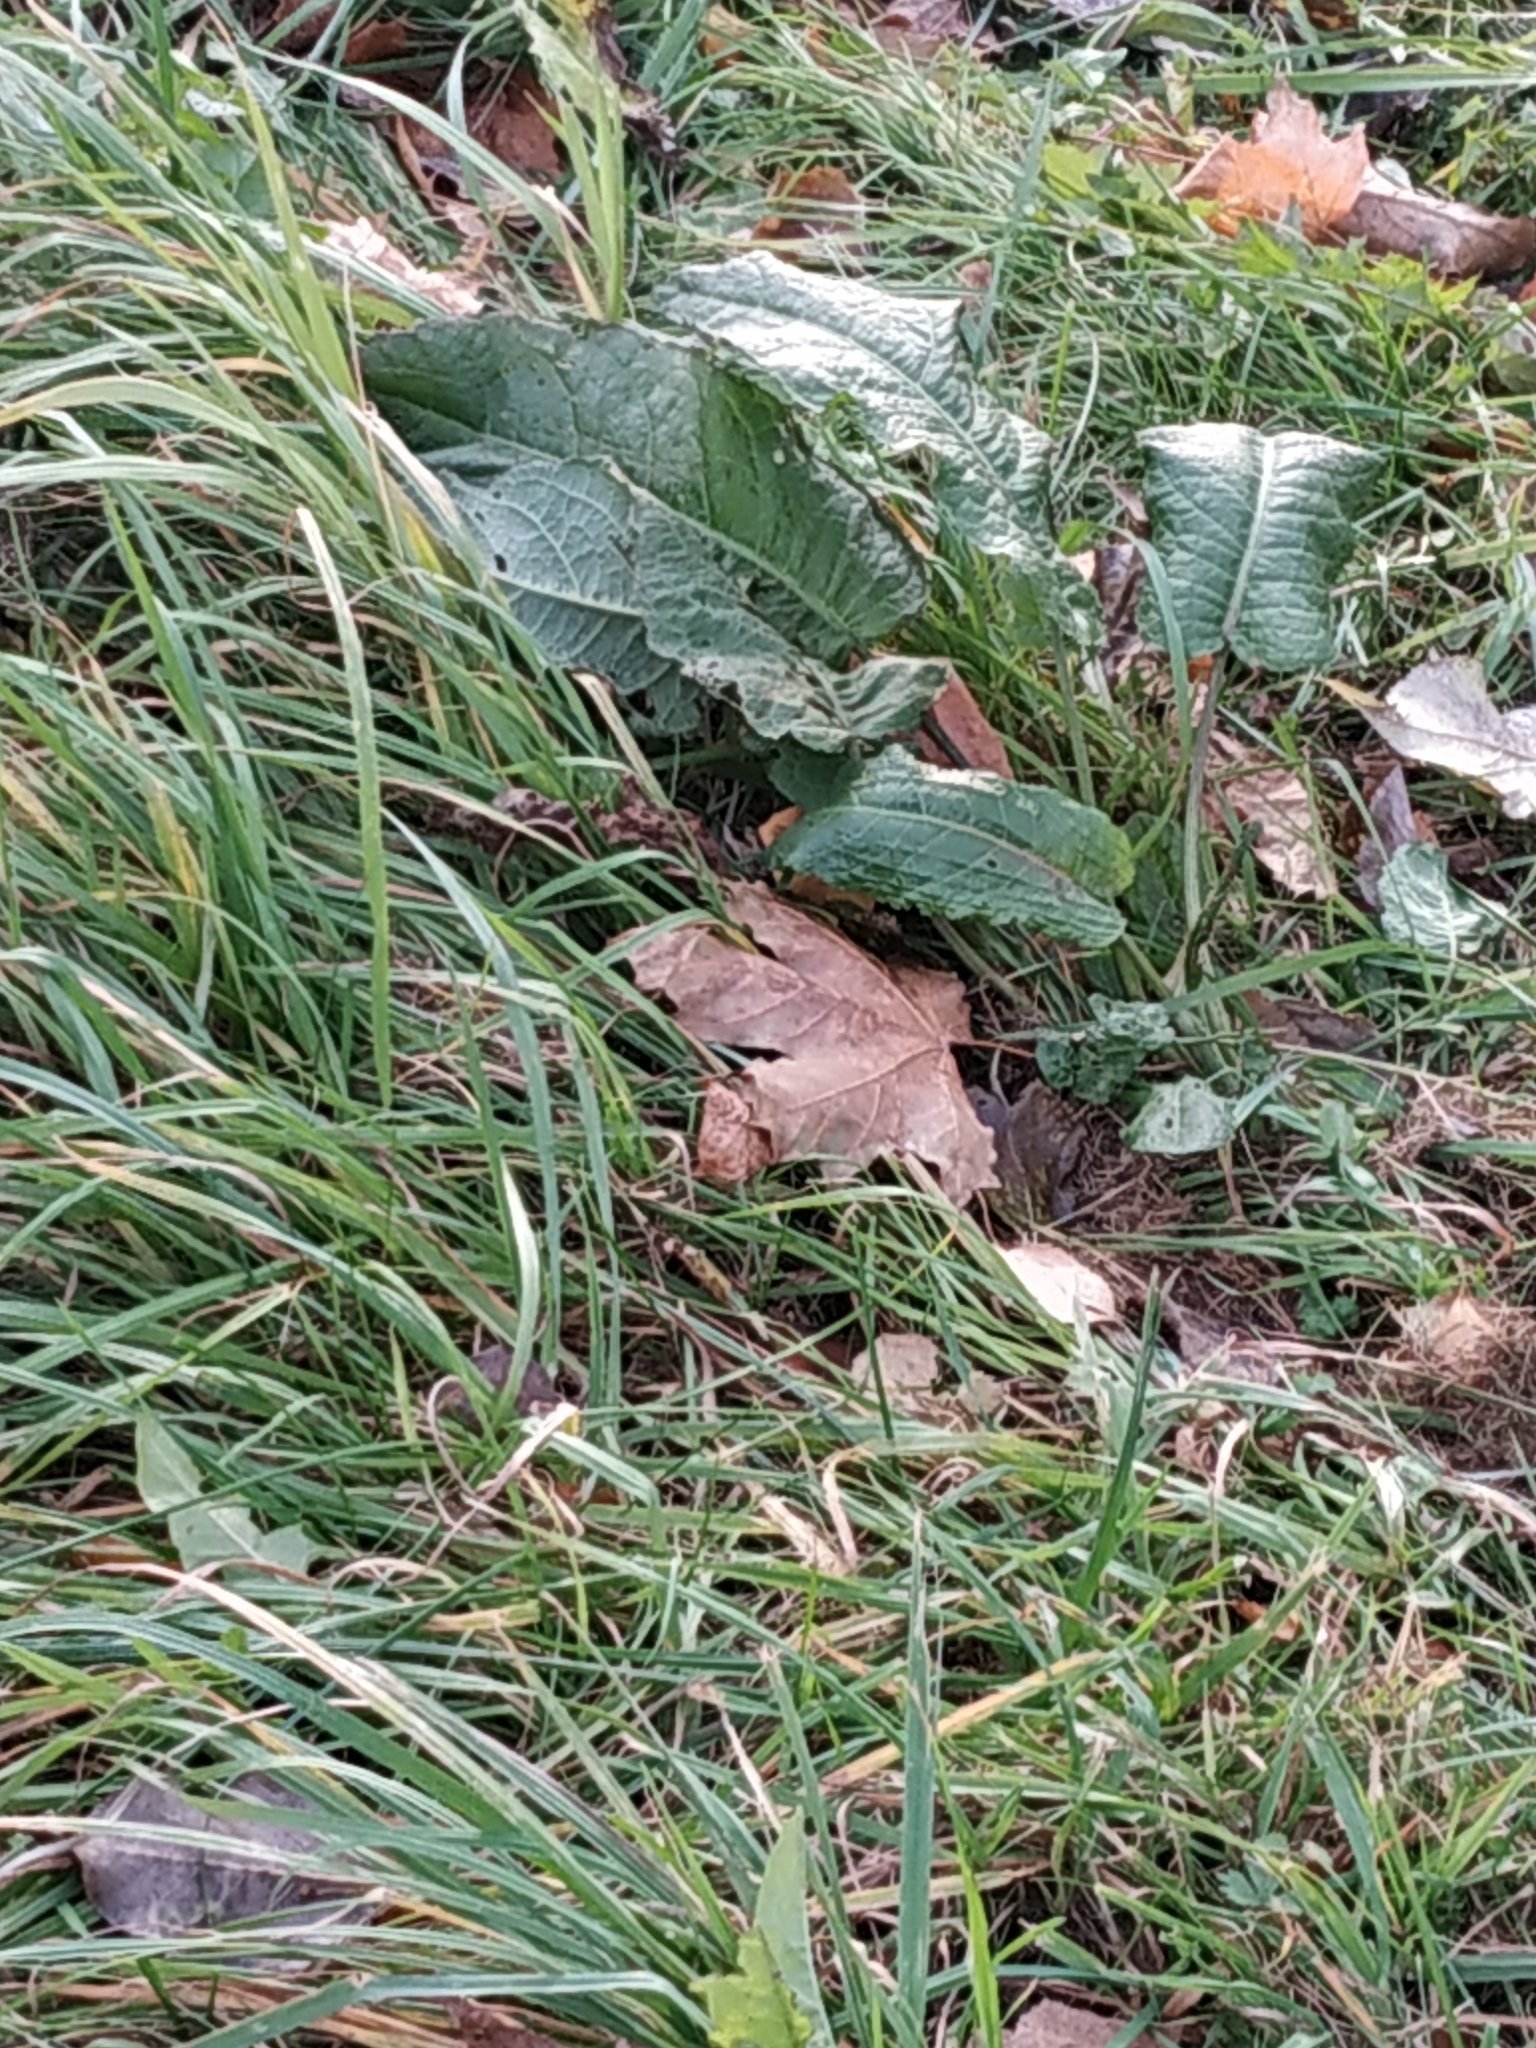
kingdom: Plantae
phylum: Tracheophyta
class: Magnoliopsida
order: Caryophyllales
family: Polygonaceae
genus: Rumex
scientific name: Rumex obtusifolius
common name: Bitter dock
